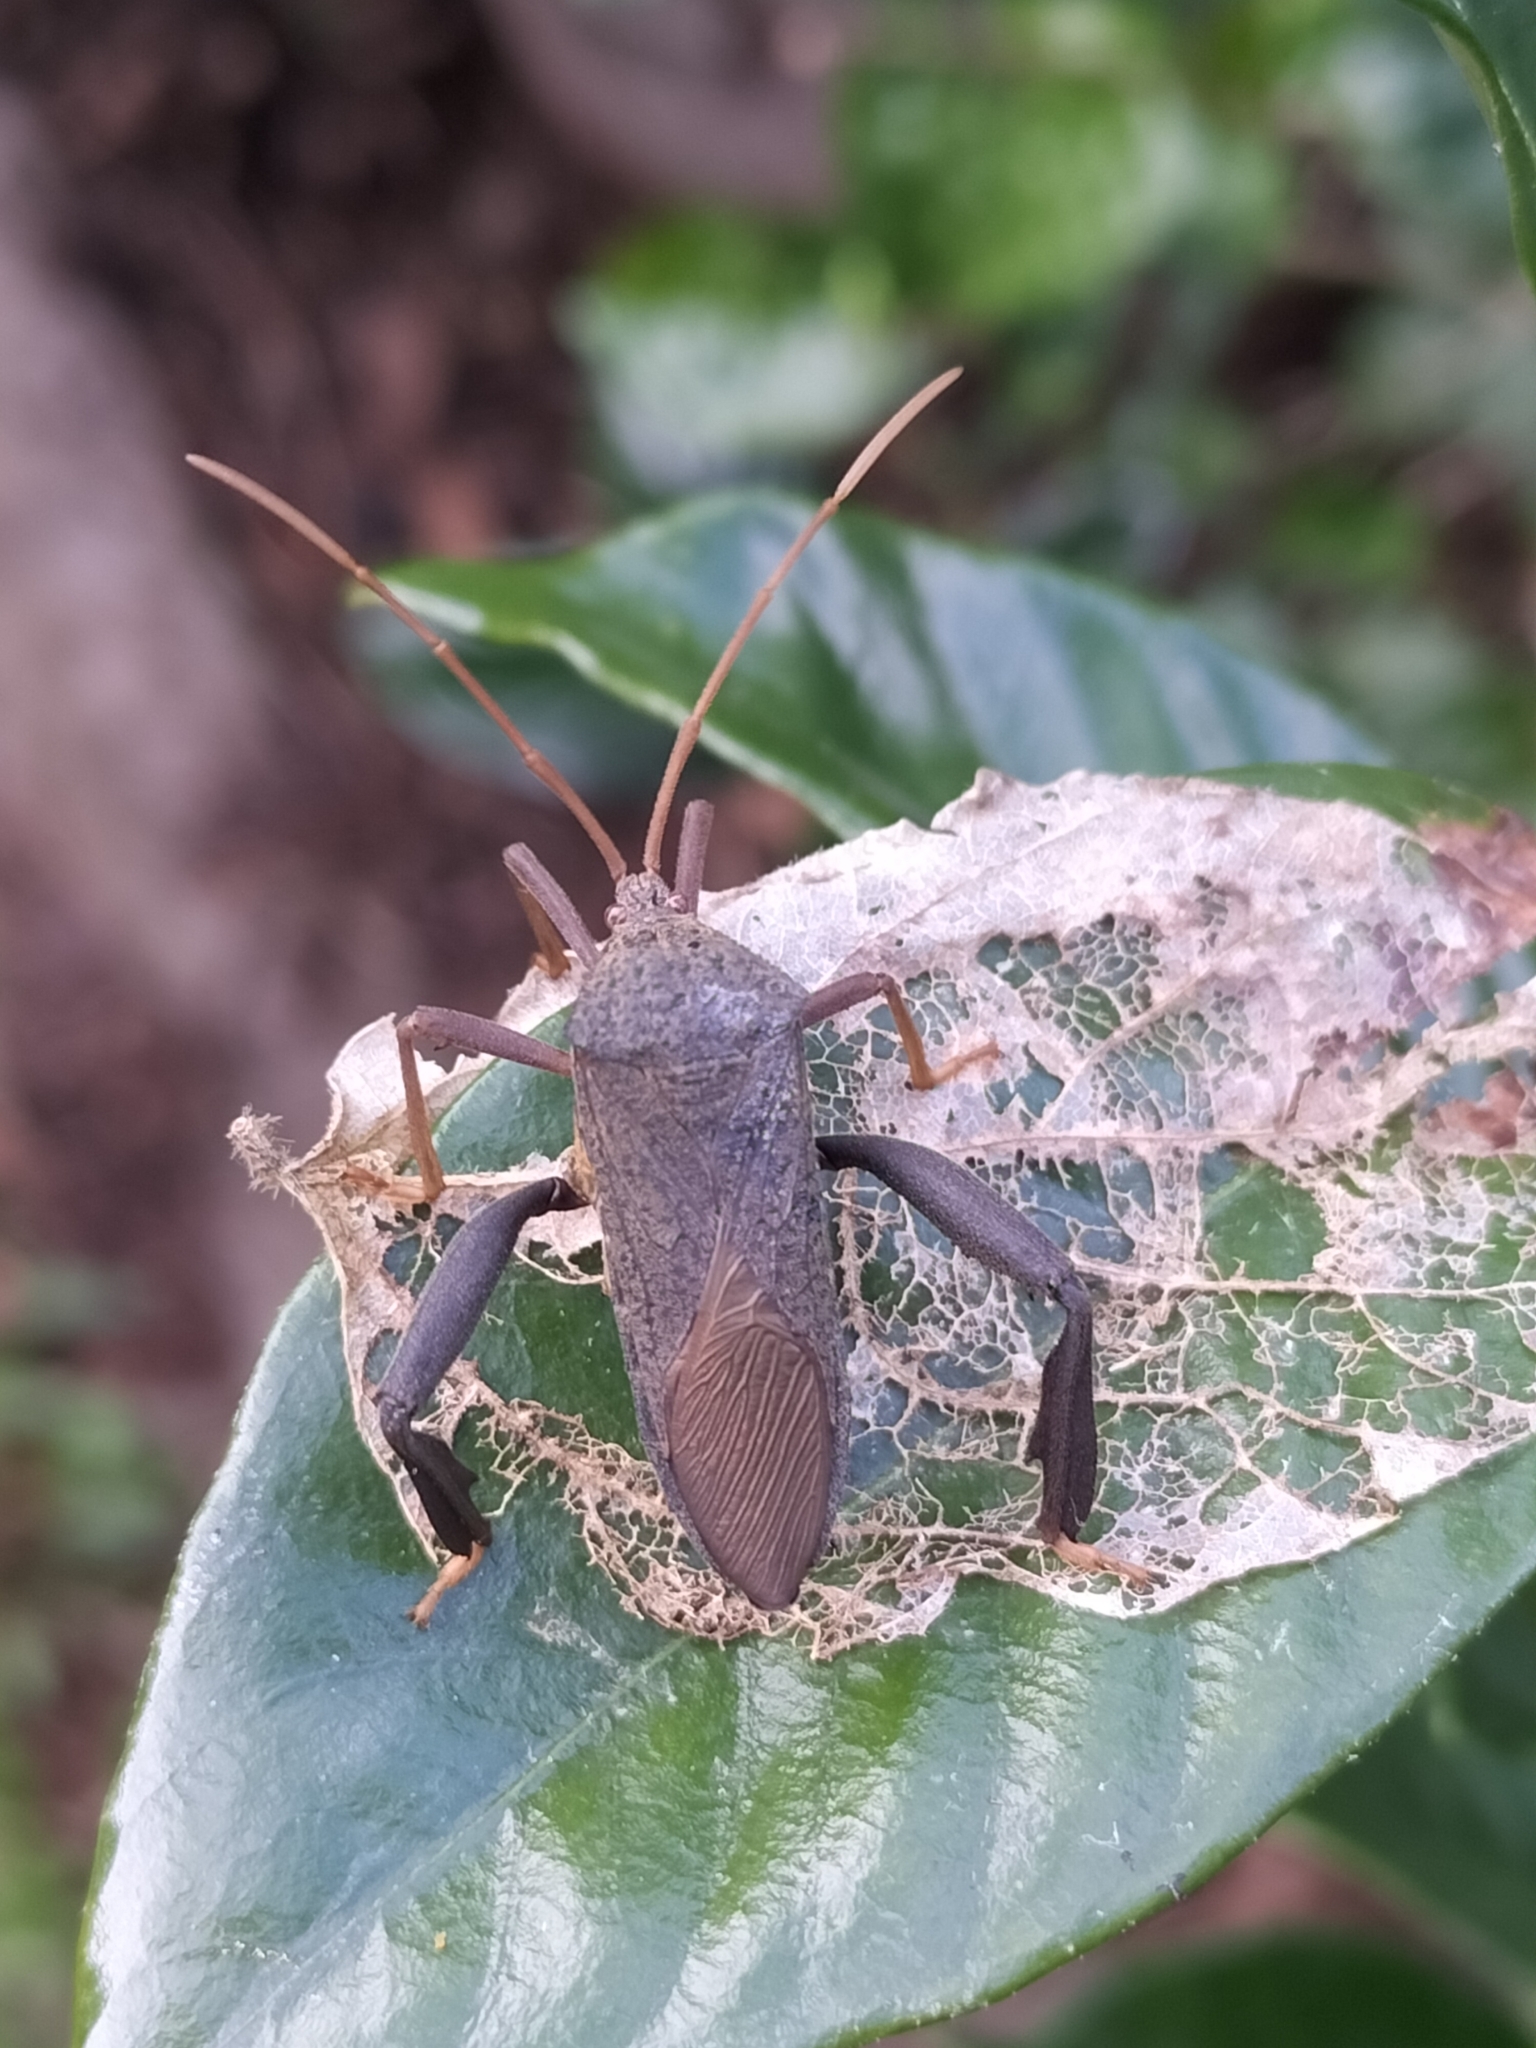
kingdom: Animalia
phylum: Arthropoda
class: Insecta
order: Hemiptera
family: Coreidae
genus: Pternistria
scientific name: Pternistria bispina
